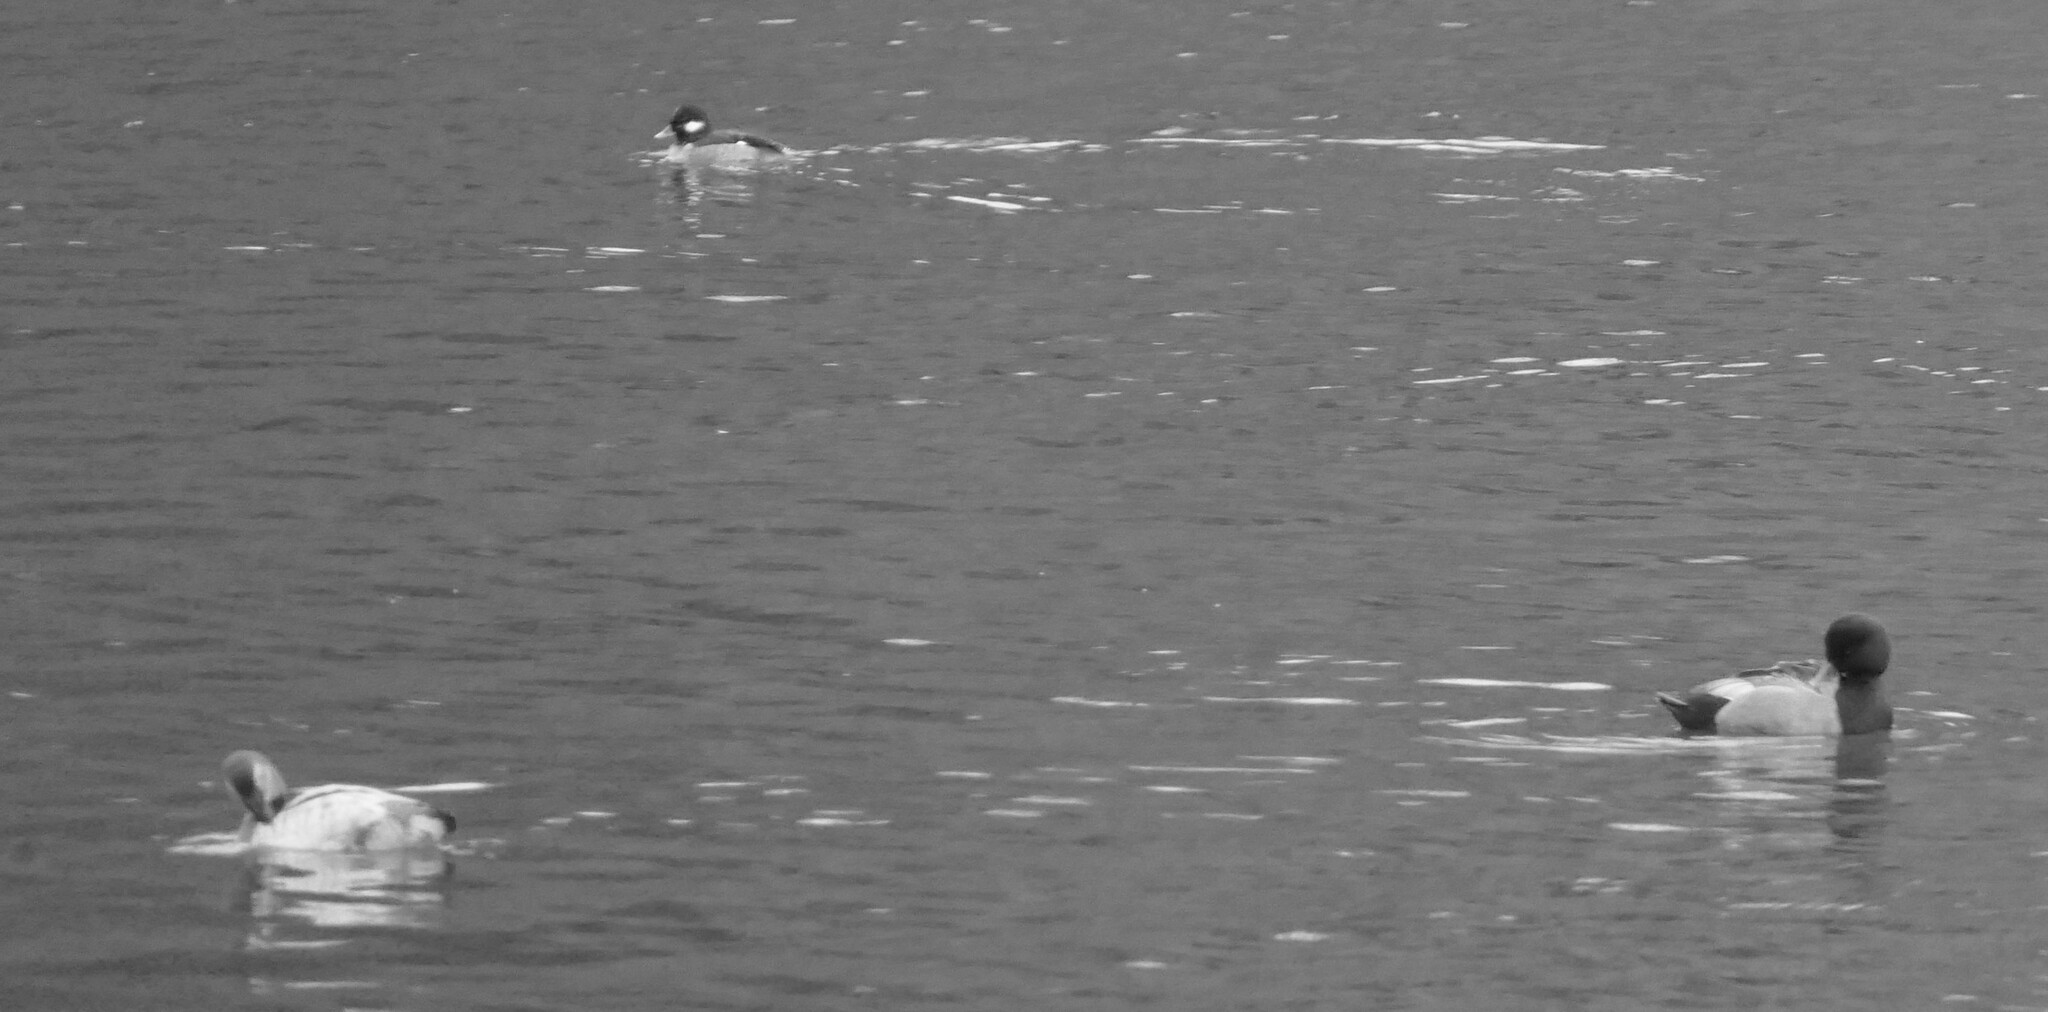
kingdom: Animalia
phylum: Chordata
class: Aves
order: Anseriformes
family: Anatidae
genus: Aythya
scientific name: Aythya americana
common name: Redhead
